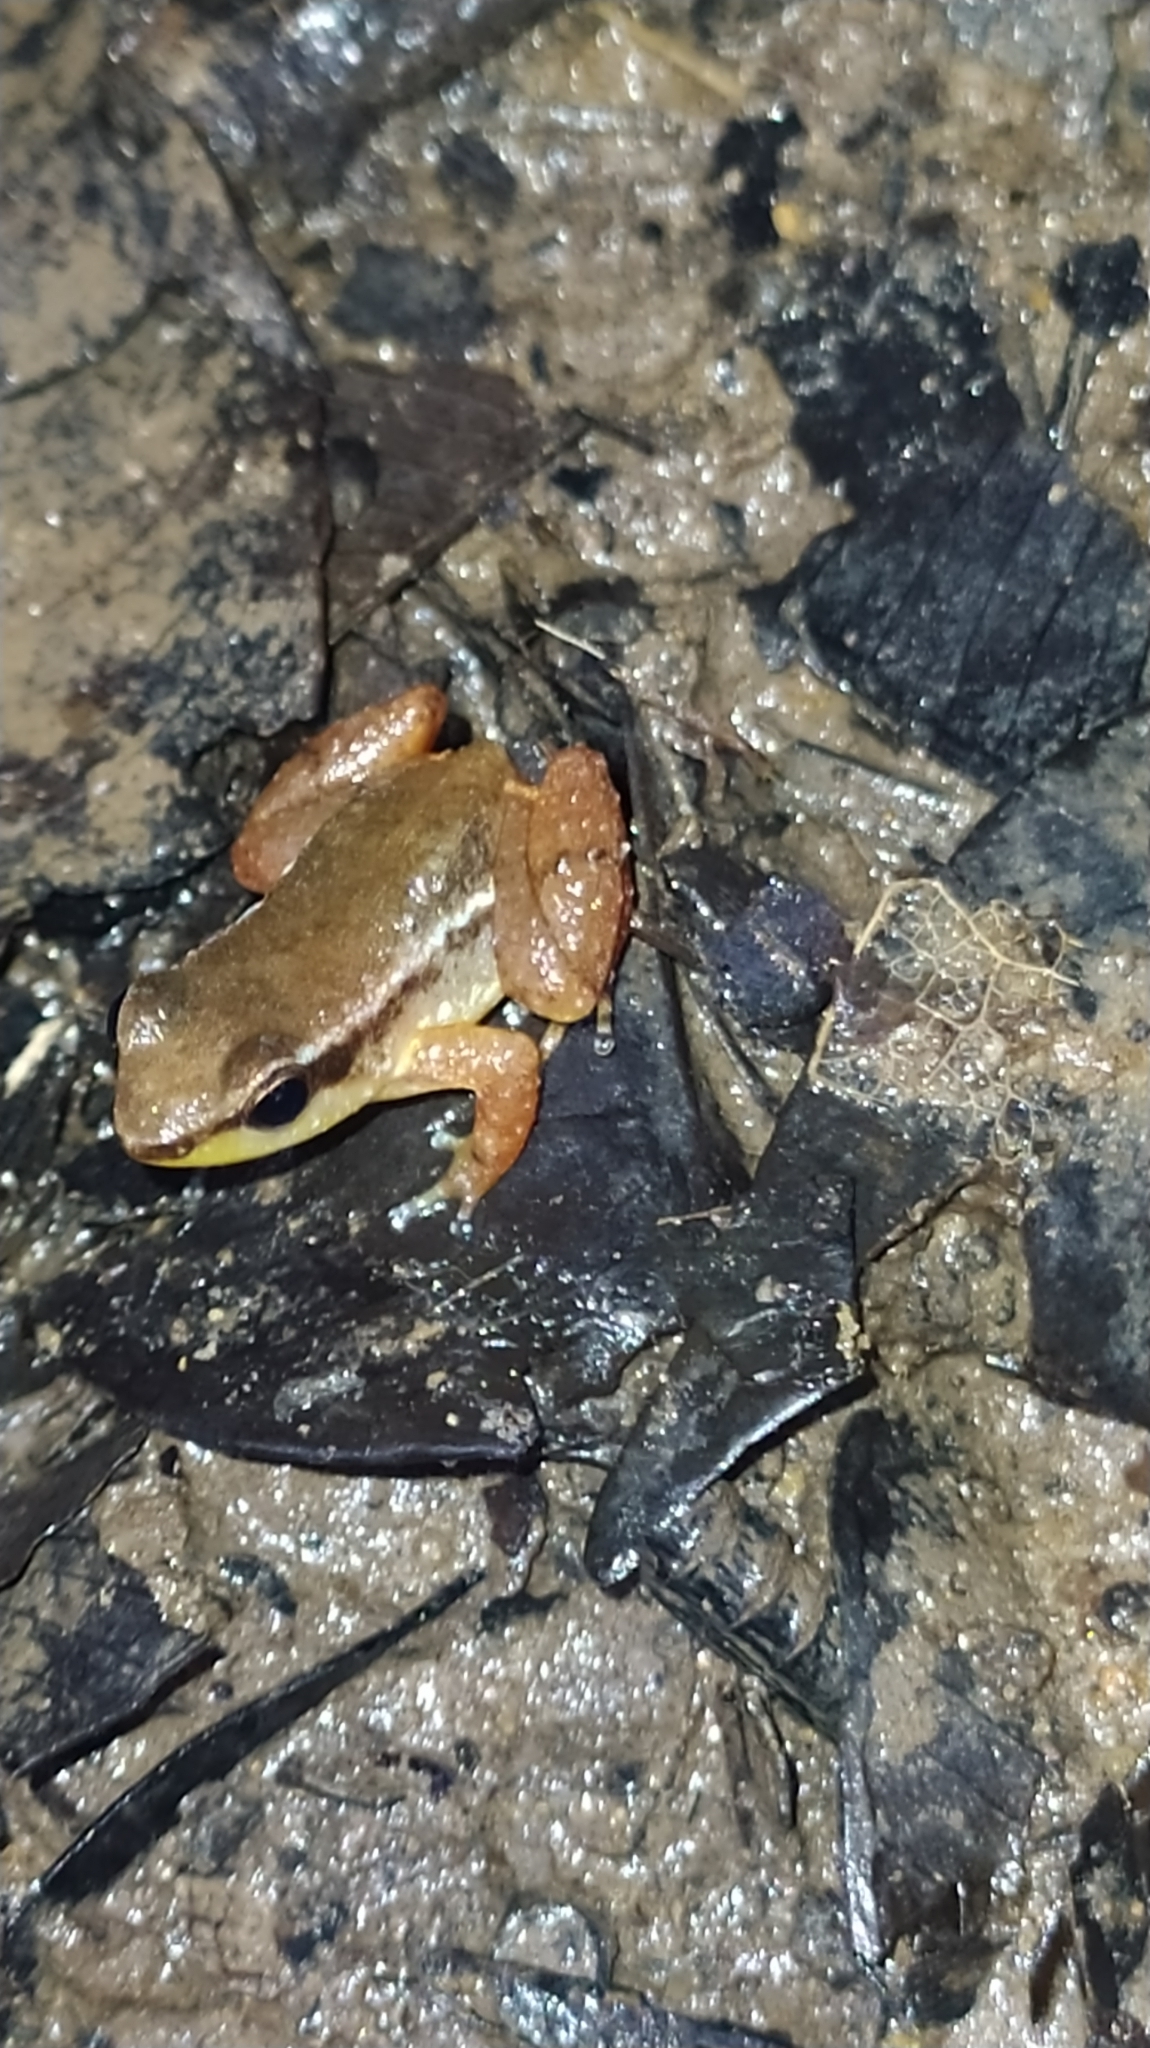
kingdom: Animalia
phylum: Chordata
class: Amphibia
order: Anura
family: Aromobatidae
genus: Anomaloglossus
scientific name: Anomaloglossus baeobatrachus
